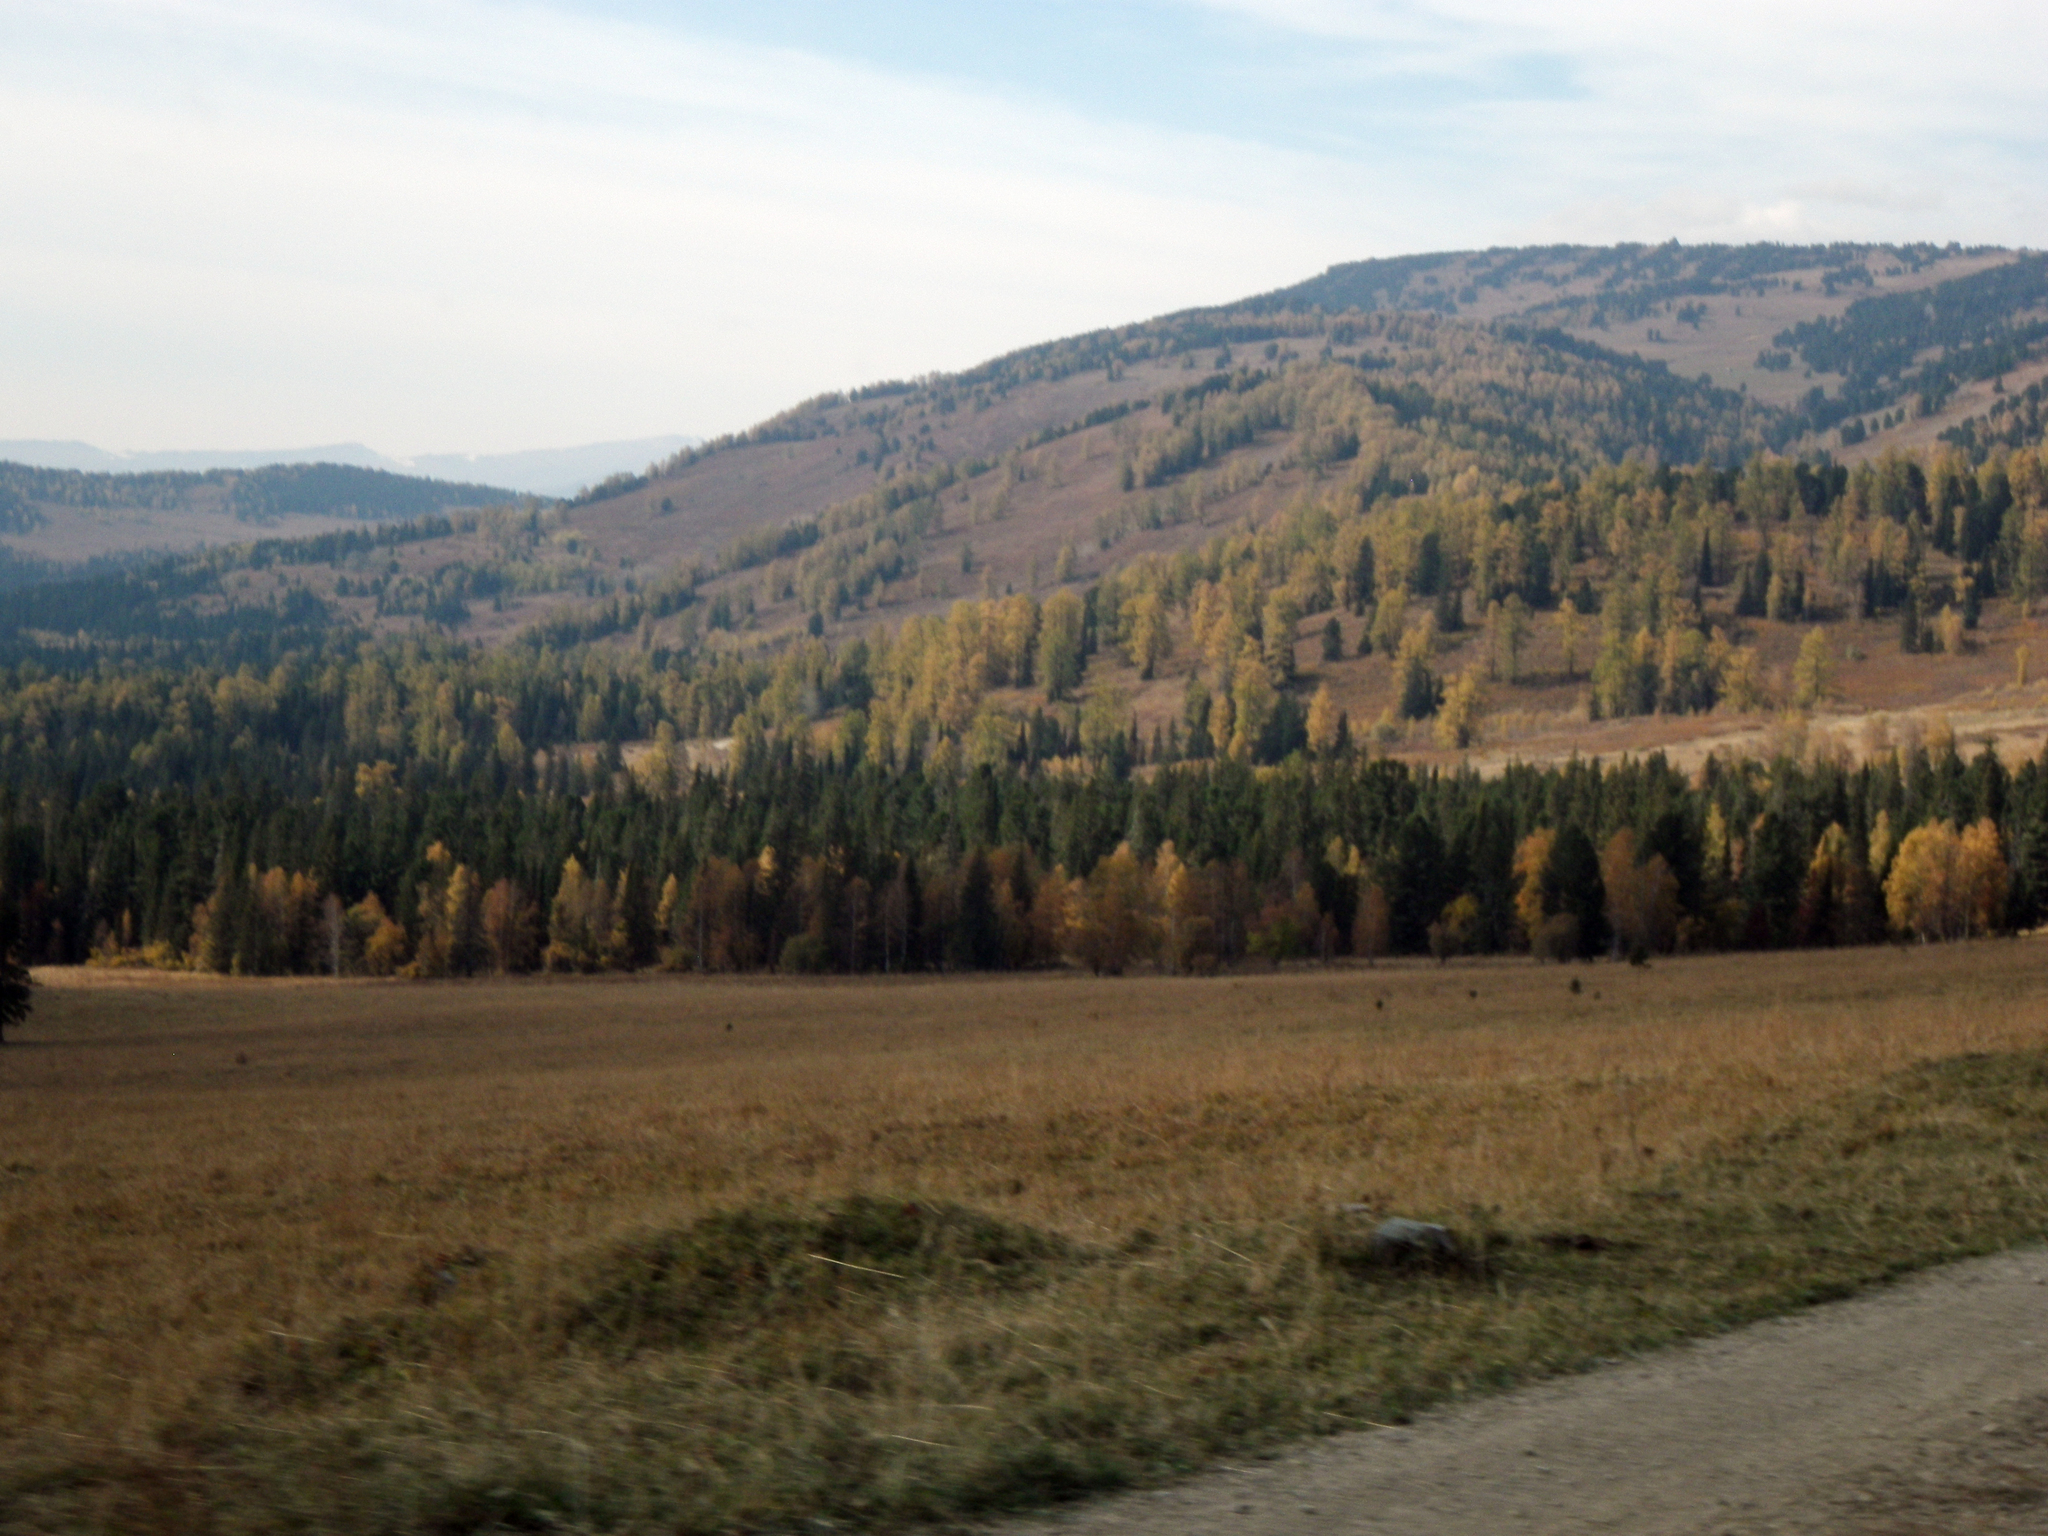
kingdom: Plantae
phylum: Tracheophyta
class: Pinopsida
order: Pinales
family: Pinaceae
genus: Picea
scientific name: Picea obovata
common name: Siberian spruce
